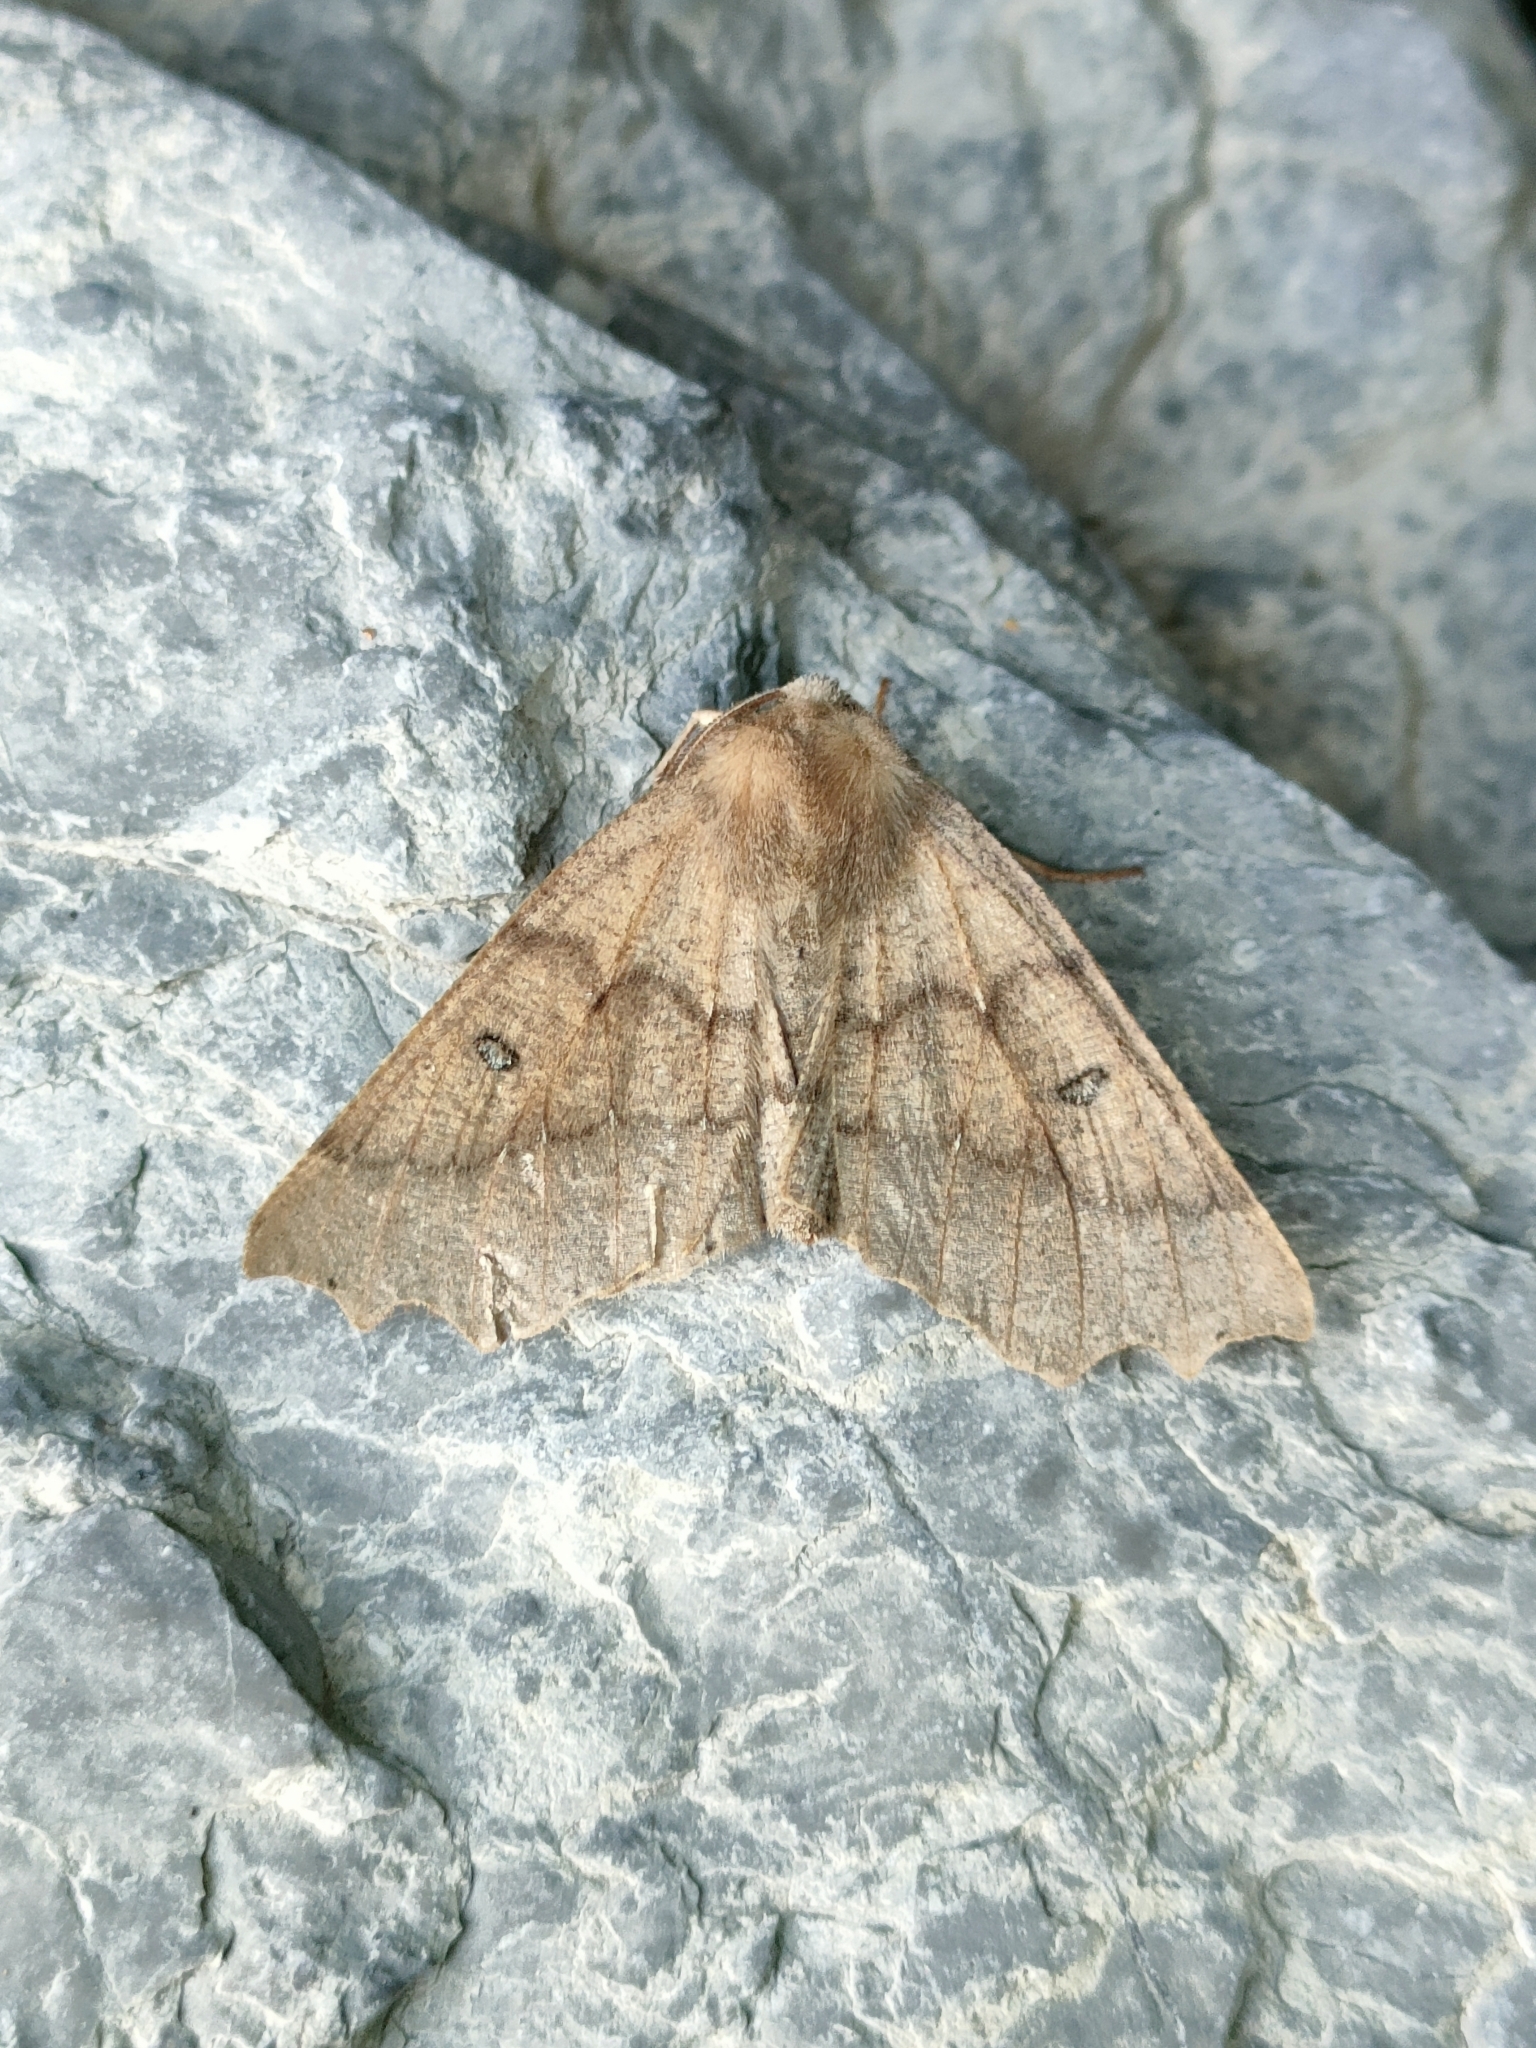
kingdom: Animalia
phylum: Arthropoda
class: Insecta
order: Lepidoptera
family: Geometridae
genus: Odontopera
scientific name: Odontopera bidentata
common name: Scalloped hazel
